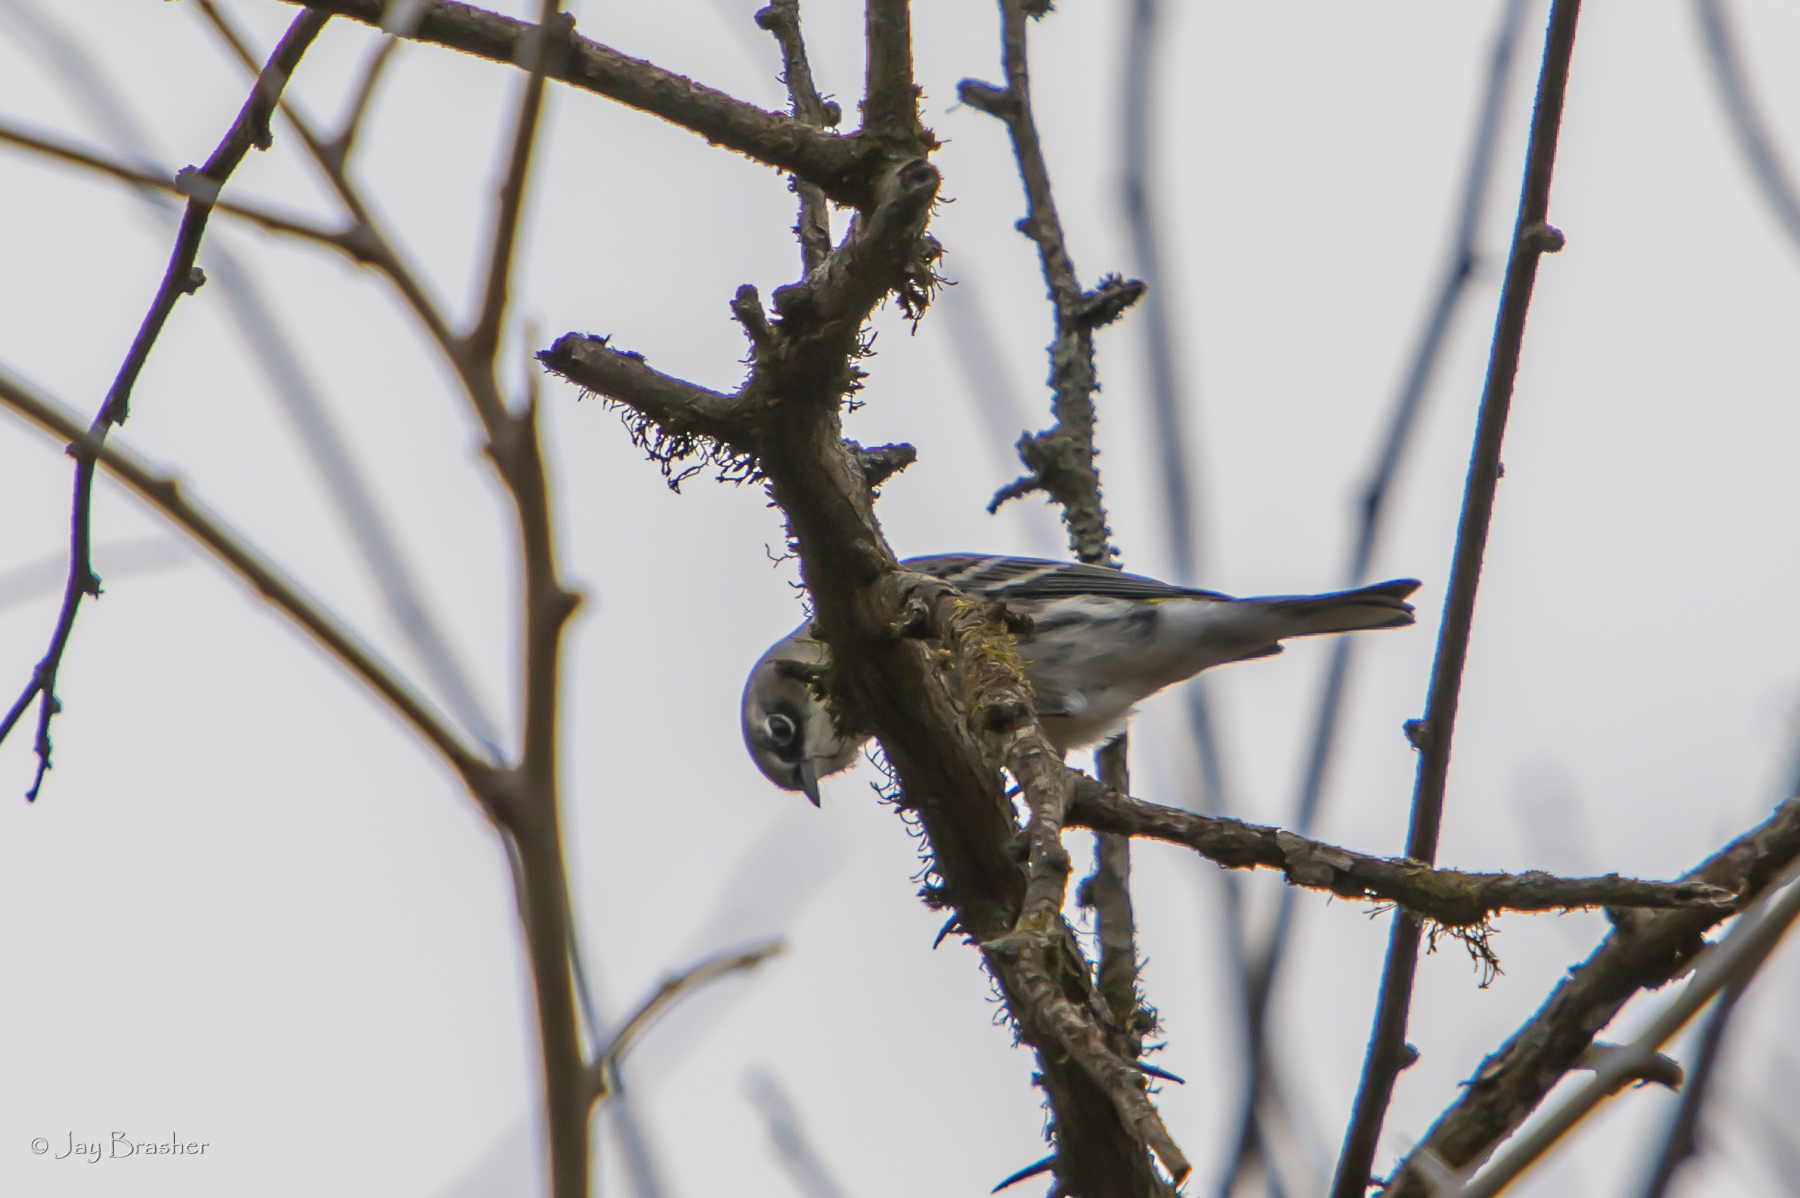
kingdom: Animalia
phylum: Chordata
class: Aves
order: Passeriformes
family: Parulidae
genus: Setophaga
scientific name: Setophaga coronata
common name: Myrtle warbler
